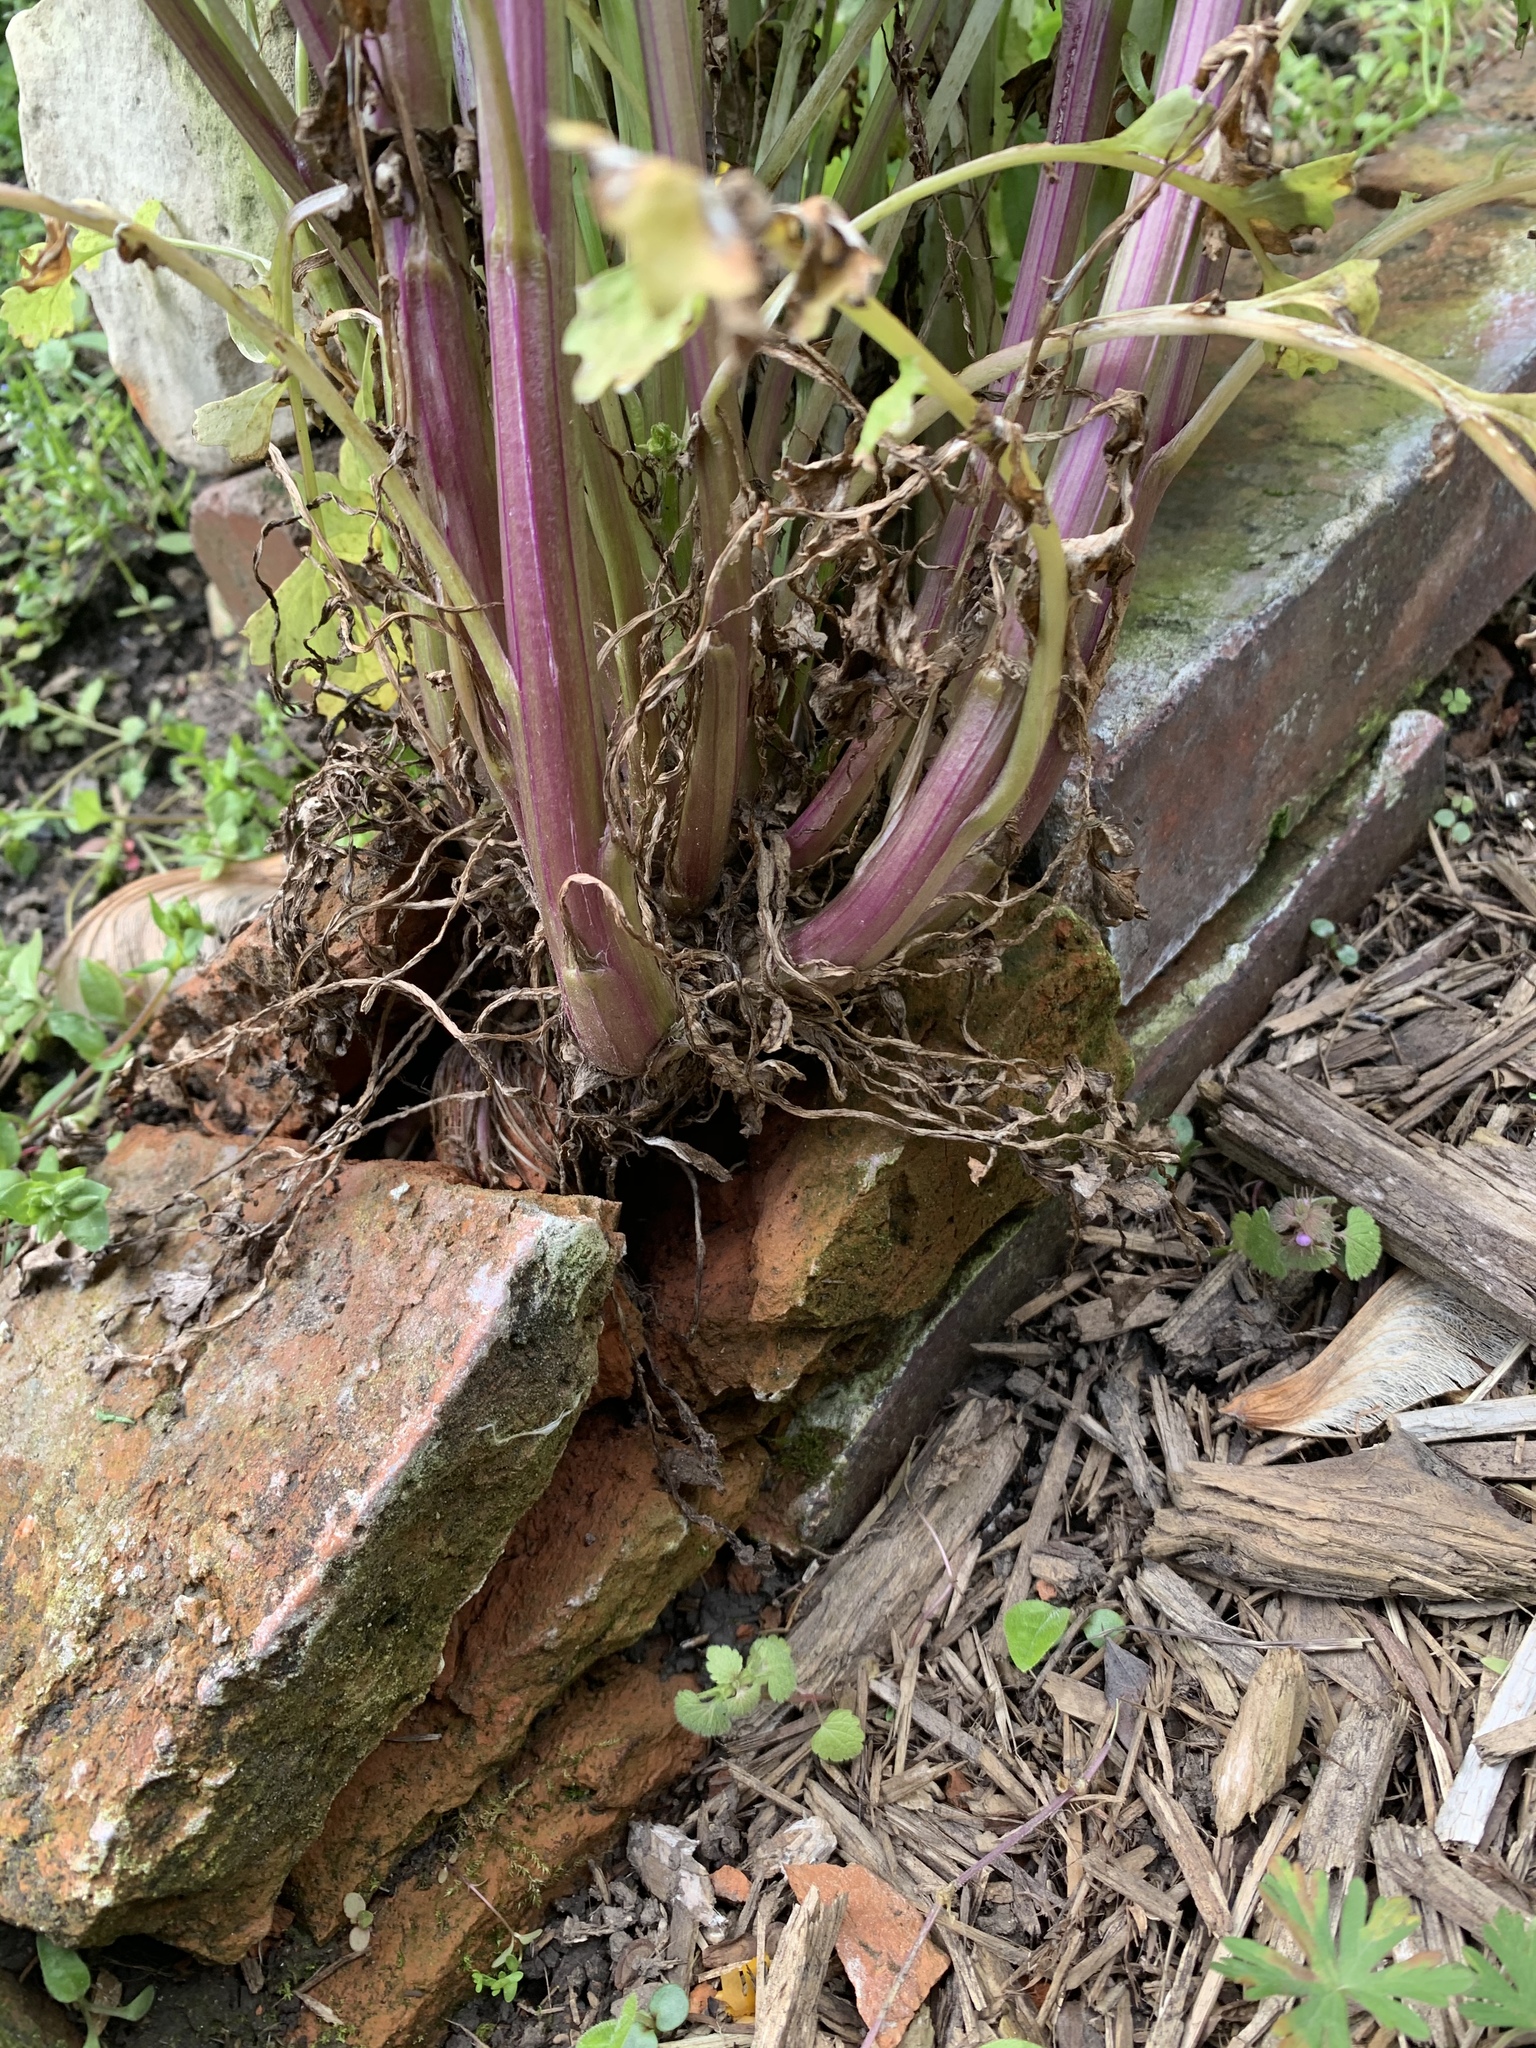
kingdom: Plantae
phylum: Tracheophyta
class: Magnoliopsida
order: Asterales
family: Asteraceae
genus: Packera
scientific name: Packera glabella
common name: Butterweed
